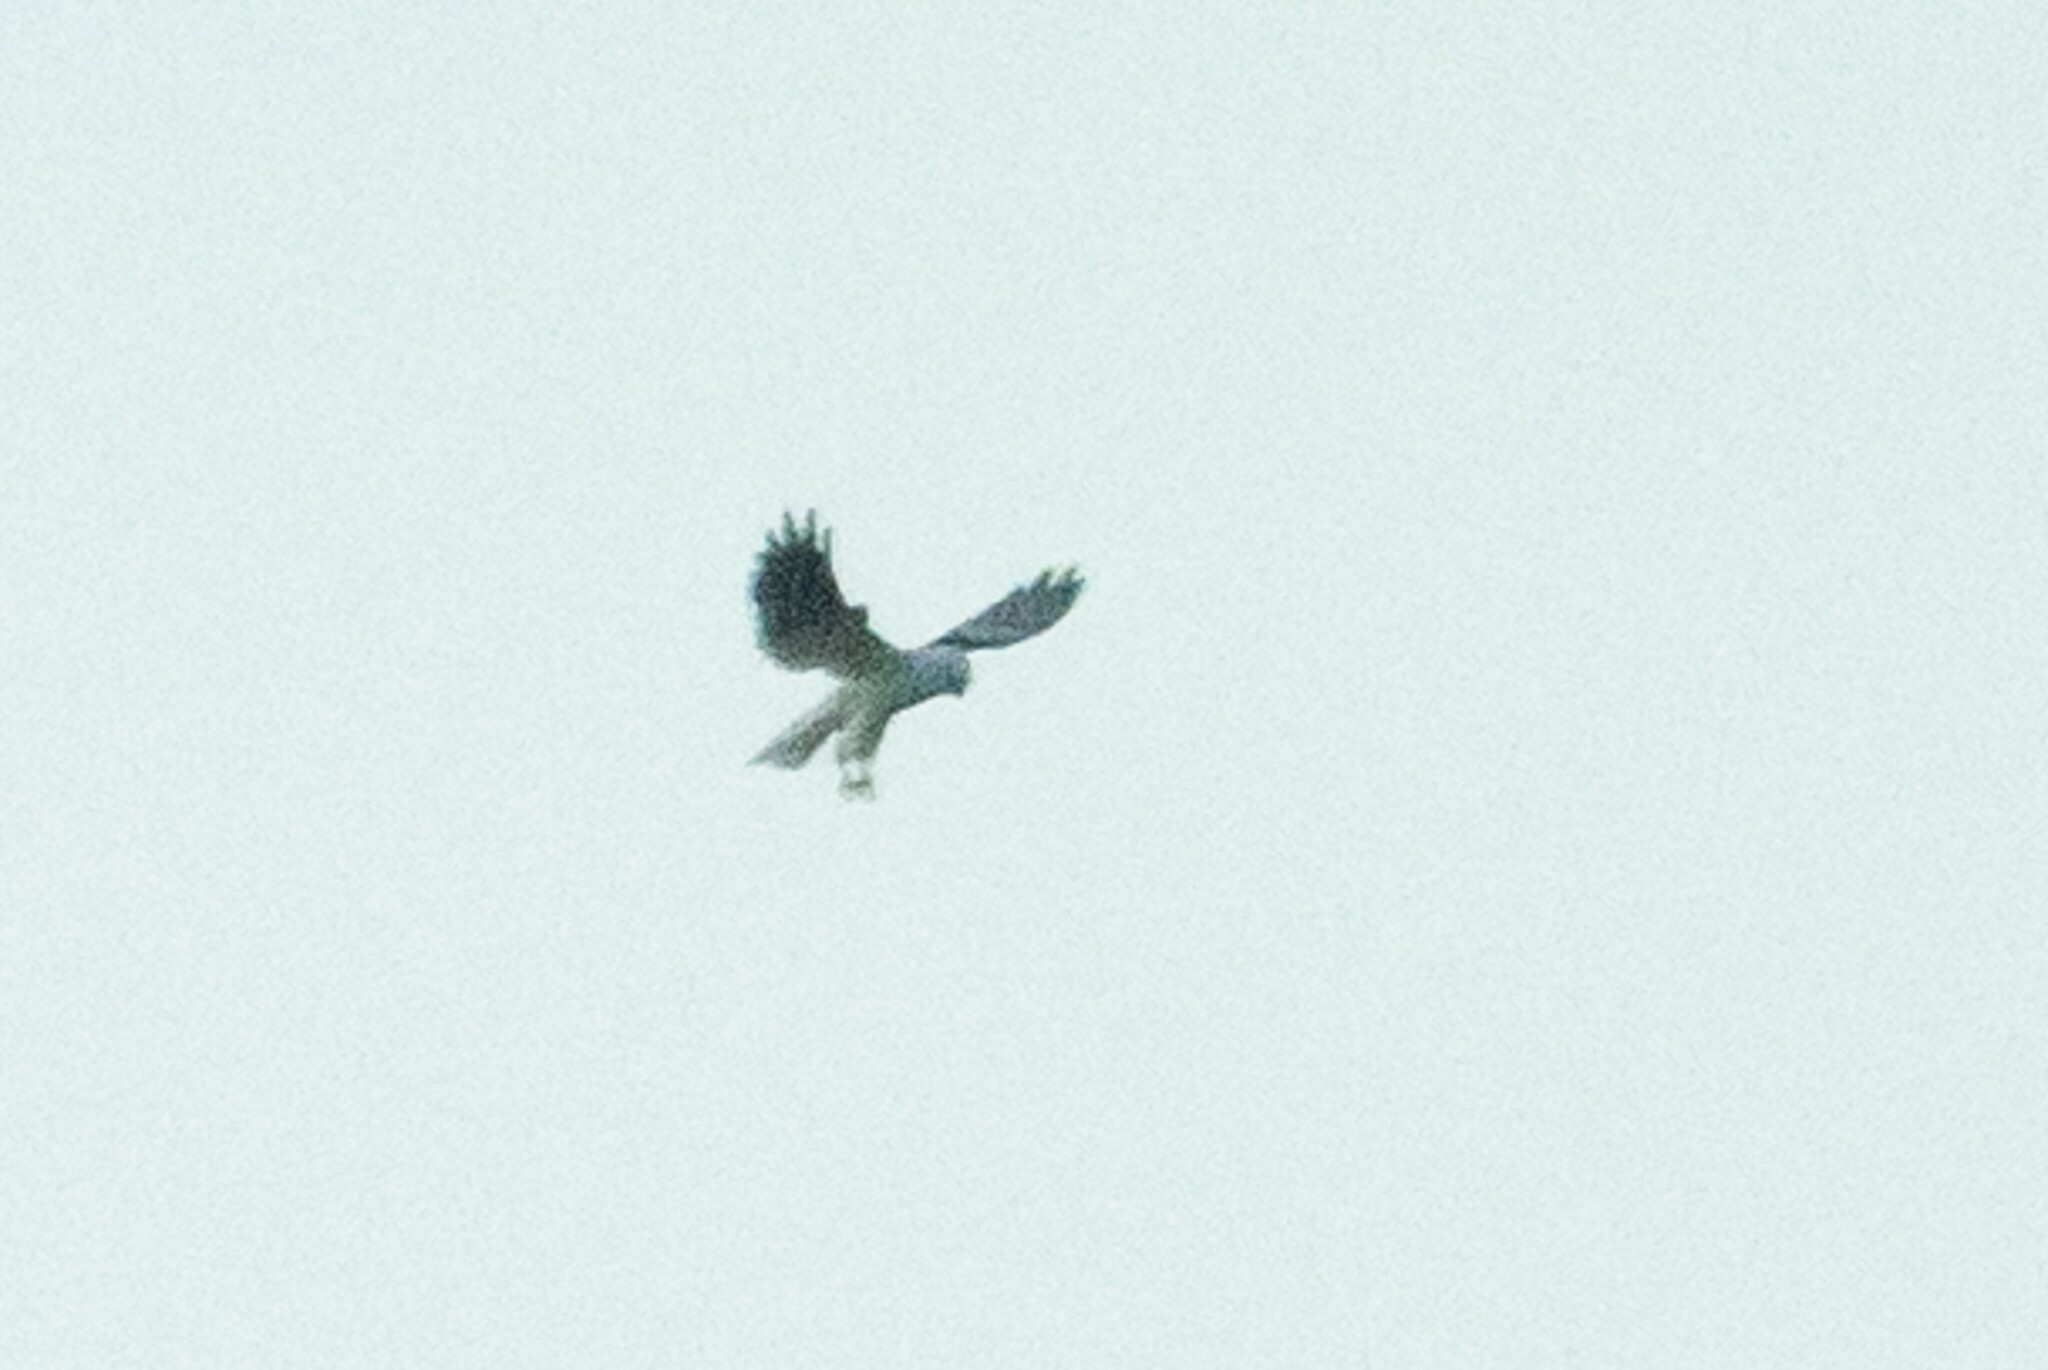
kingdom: Animalia
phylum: Chordata
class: Aves
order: Accipitriformes
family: Accipitridae
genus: Elanus
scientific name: Elanus axillaris
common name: Black-shouldered kite
